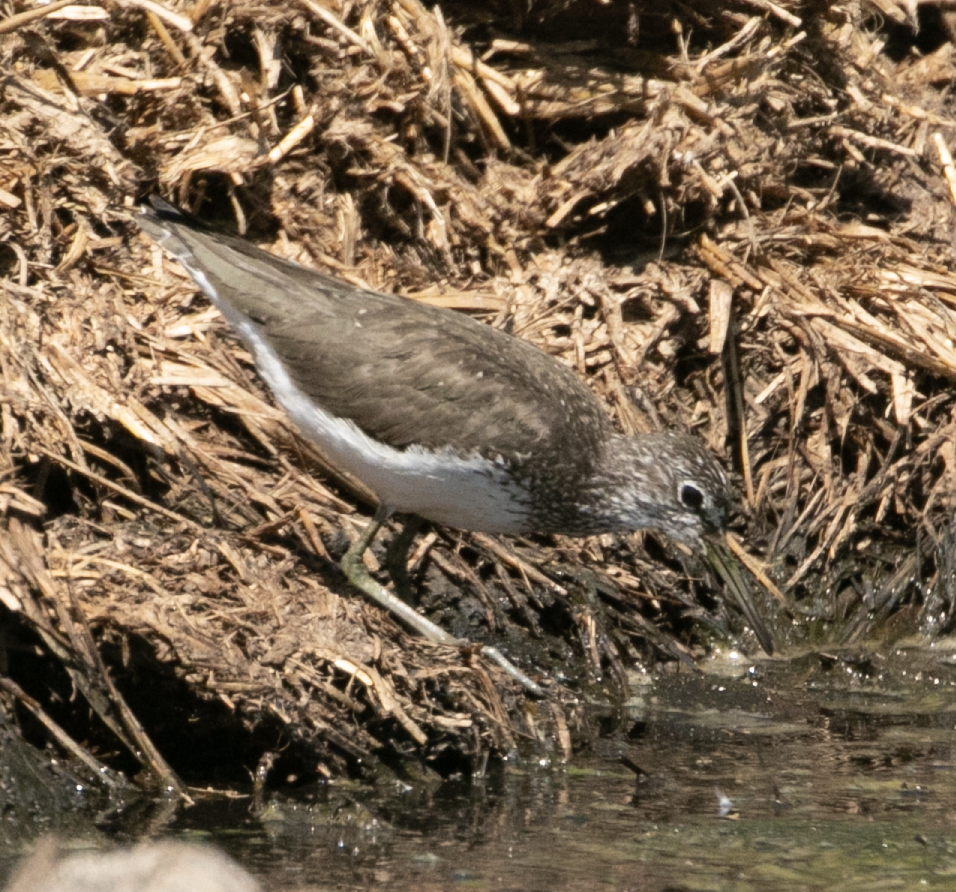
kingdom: Animalia
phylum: Chordata
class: Aves
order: Charadriiformes
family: Scolopacidae
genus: Tringa
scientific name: Tringa ochropus
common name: Green sandpiper
